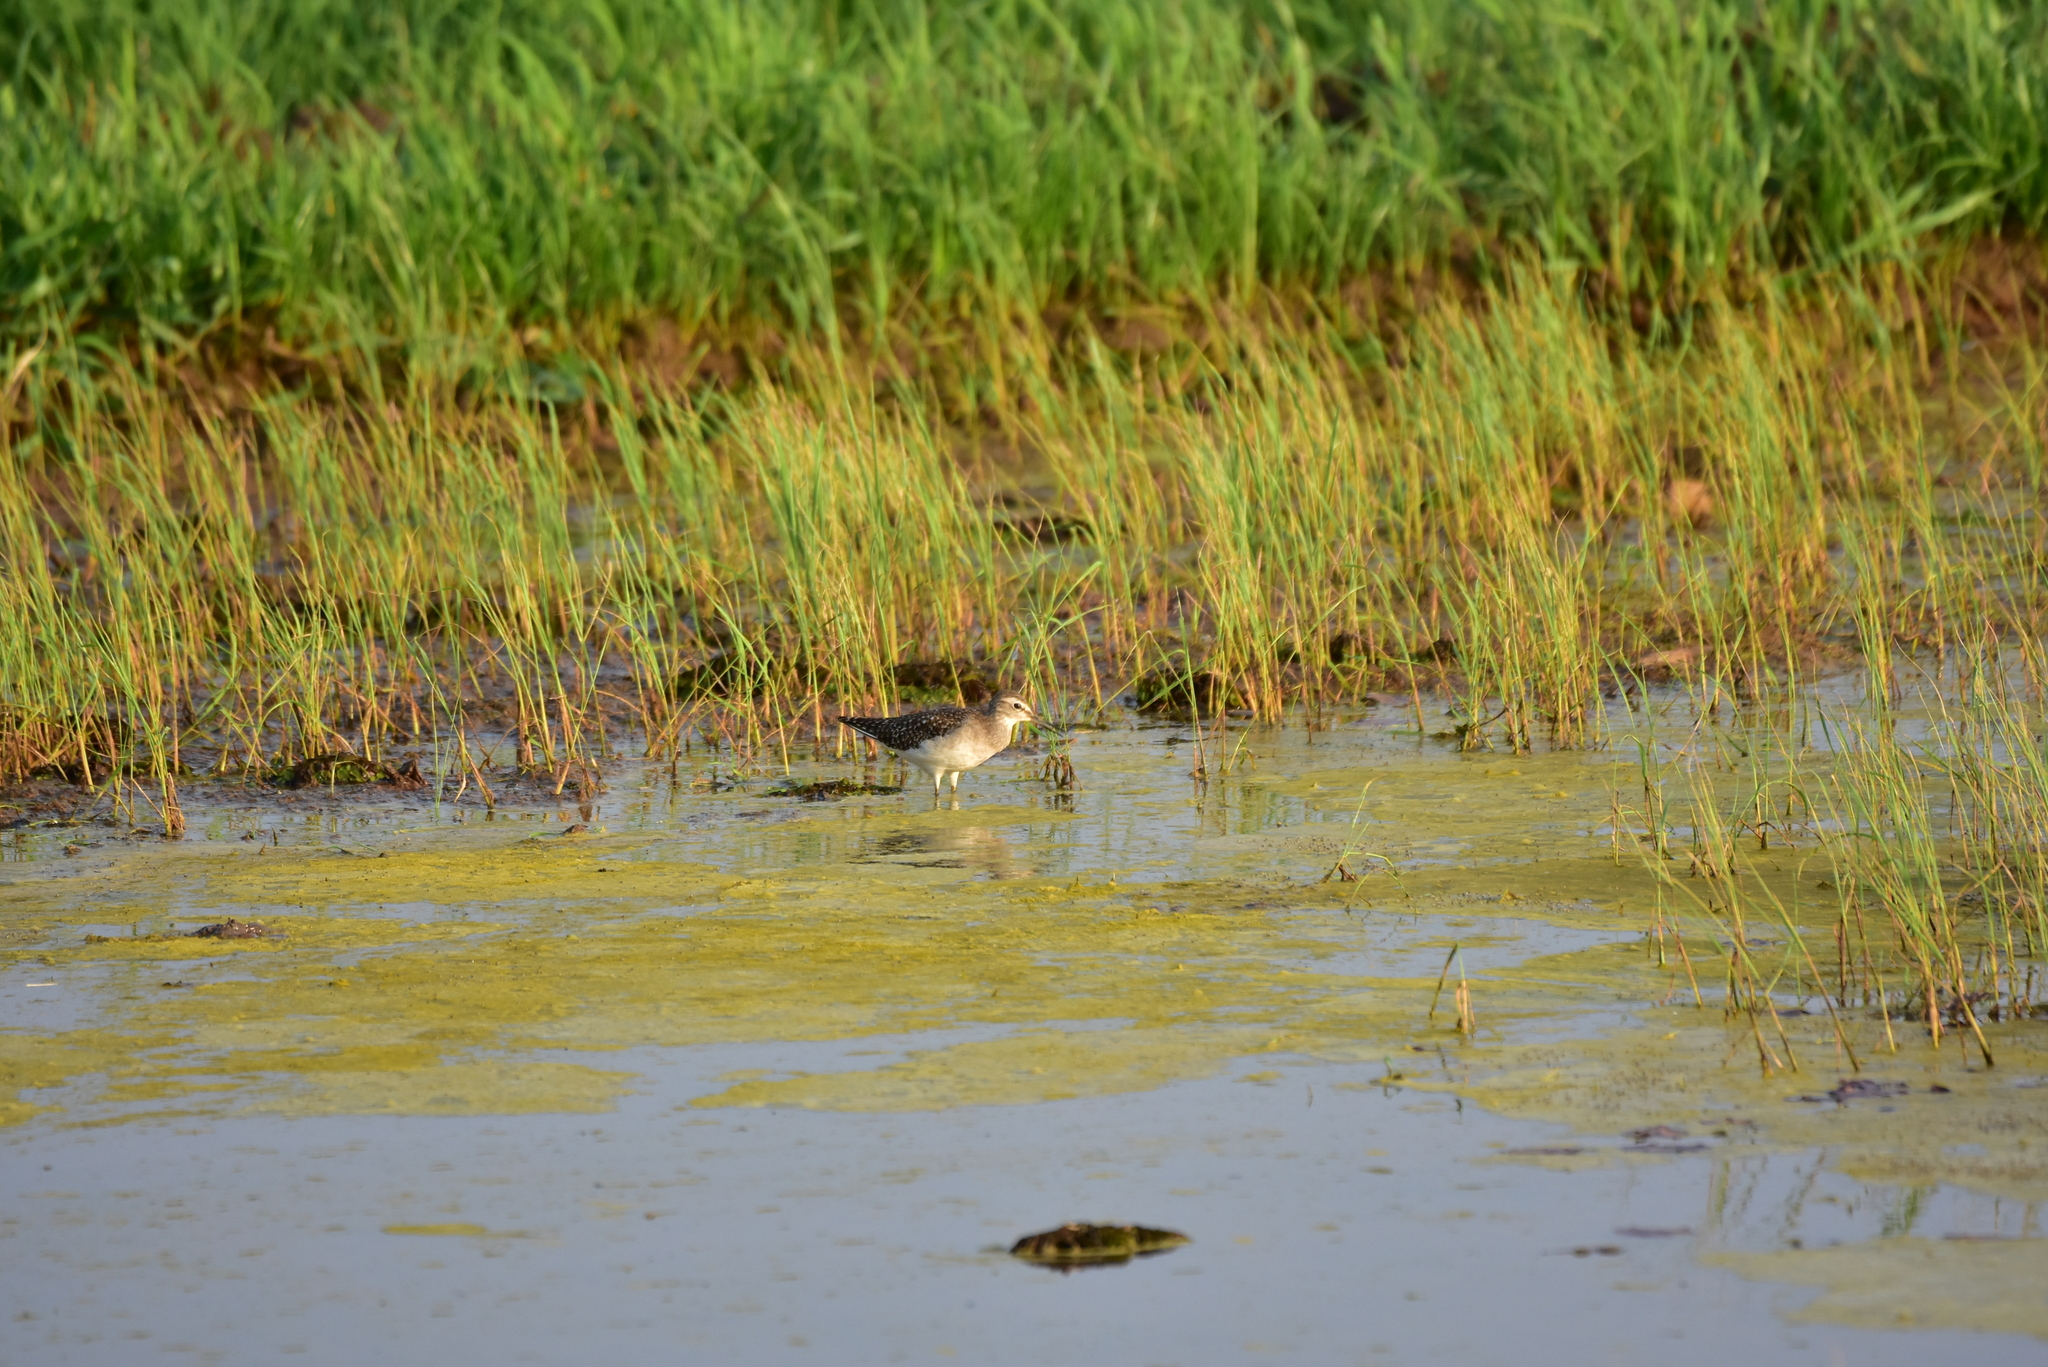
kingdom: Animalia
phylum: Chordata
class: Aves
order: Charadriiformes
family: Scolopacidae
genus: Tringa
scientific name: Tringa glareola
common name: Wood sandpiper
